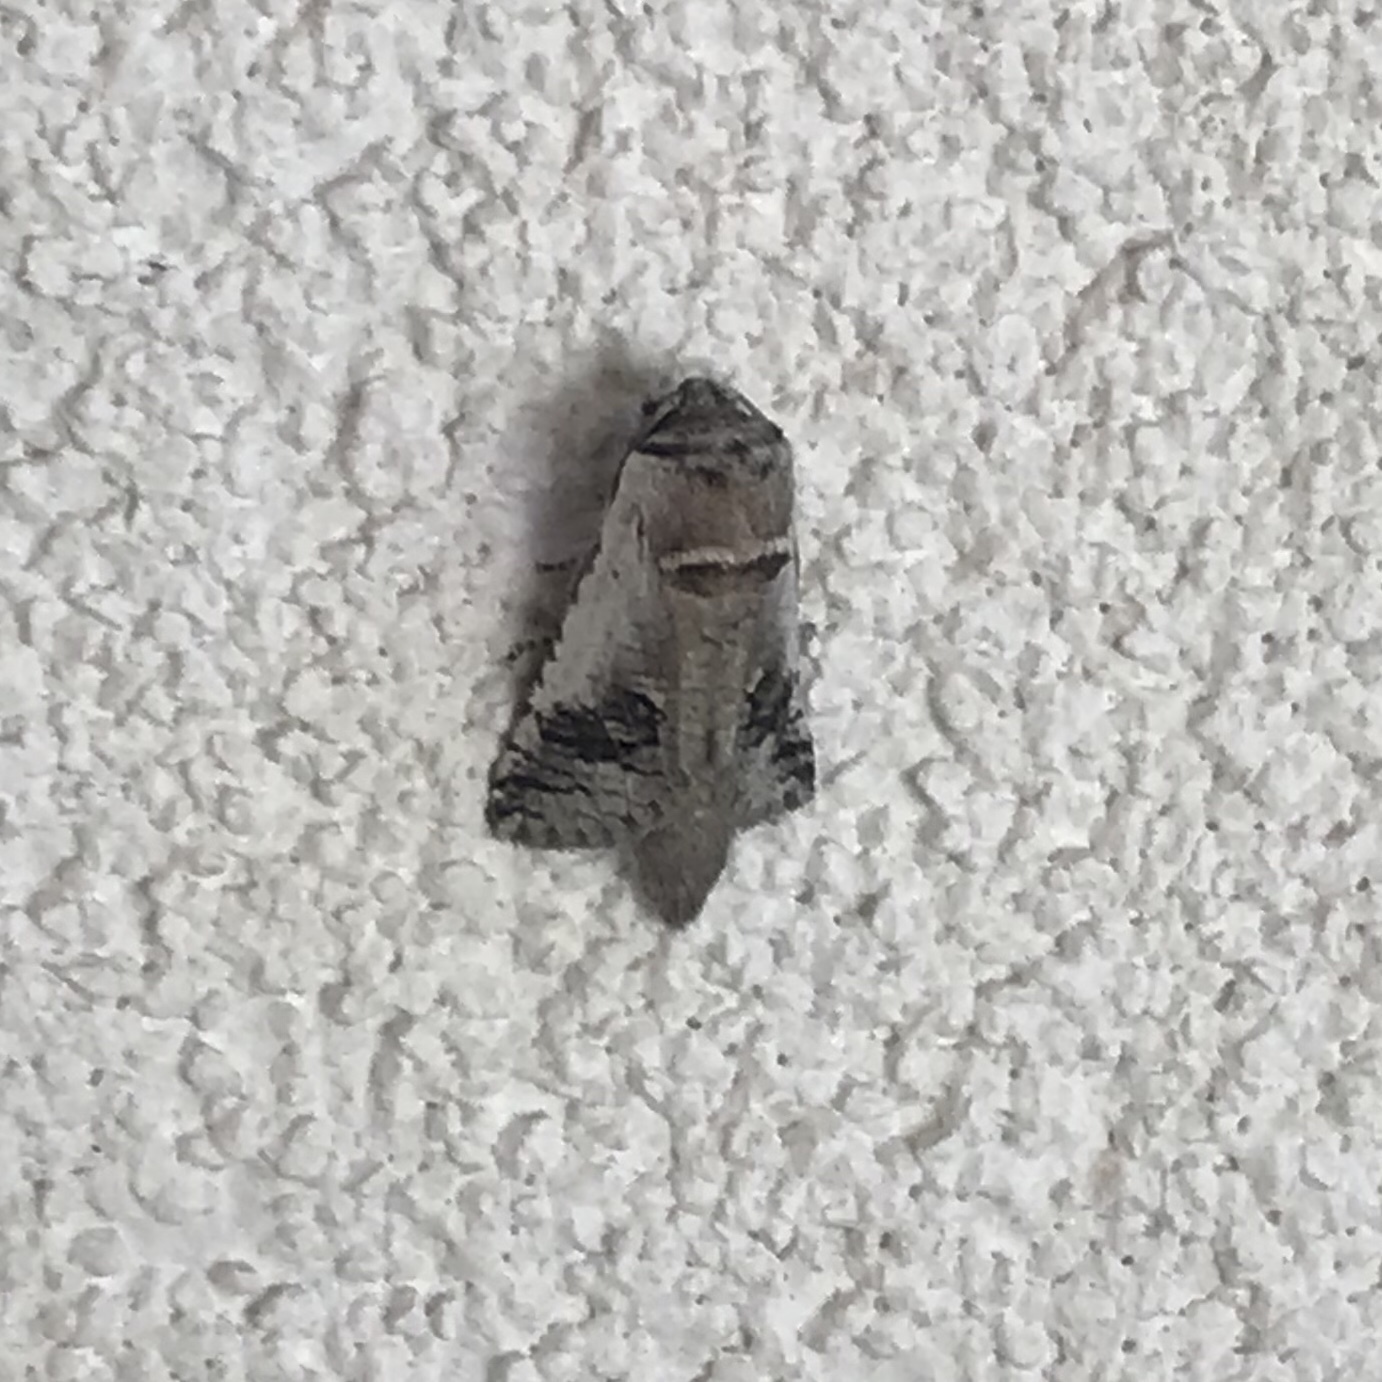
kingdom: Animalia
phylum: Arthropoda
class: Insecta
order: Lepidoptera
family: Cossidae
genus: Parahypopta
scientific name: Parahypopta caestrum
